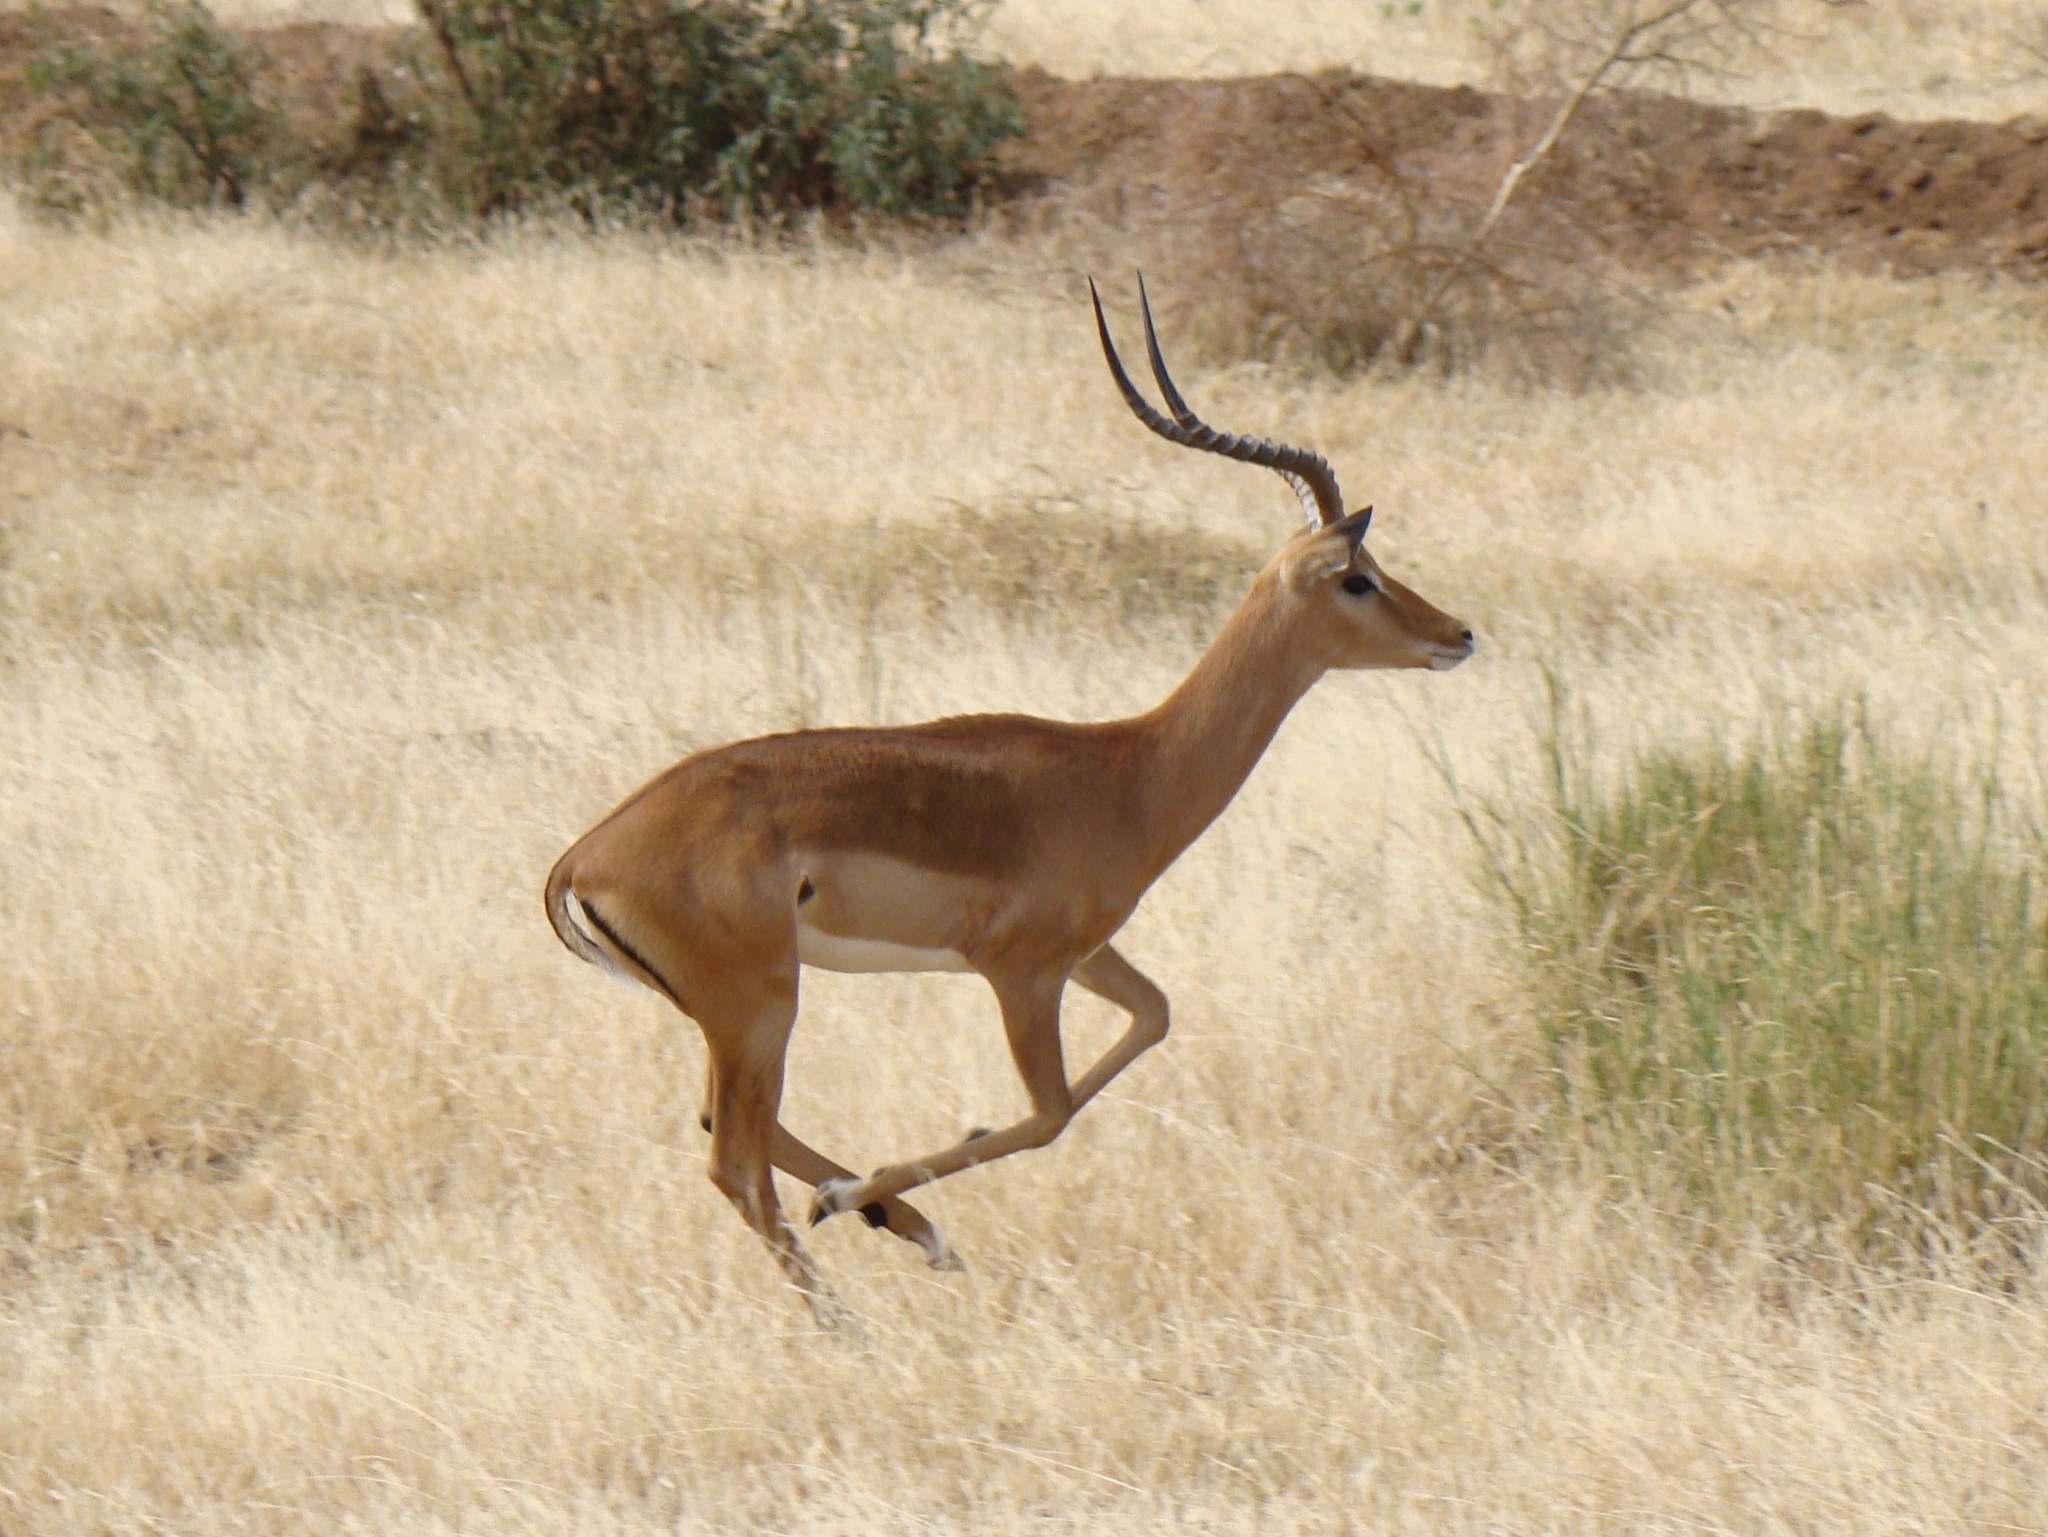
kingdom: Animalia
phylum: Chordata
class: Mammalia
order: Artiodactyla
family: Bovidae
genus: Aepyceros
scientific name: Aepyceros melampus
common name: Impala
